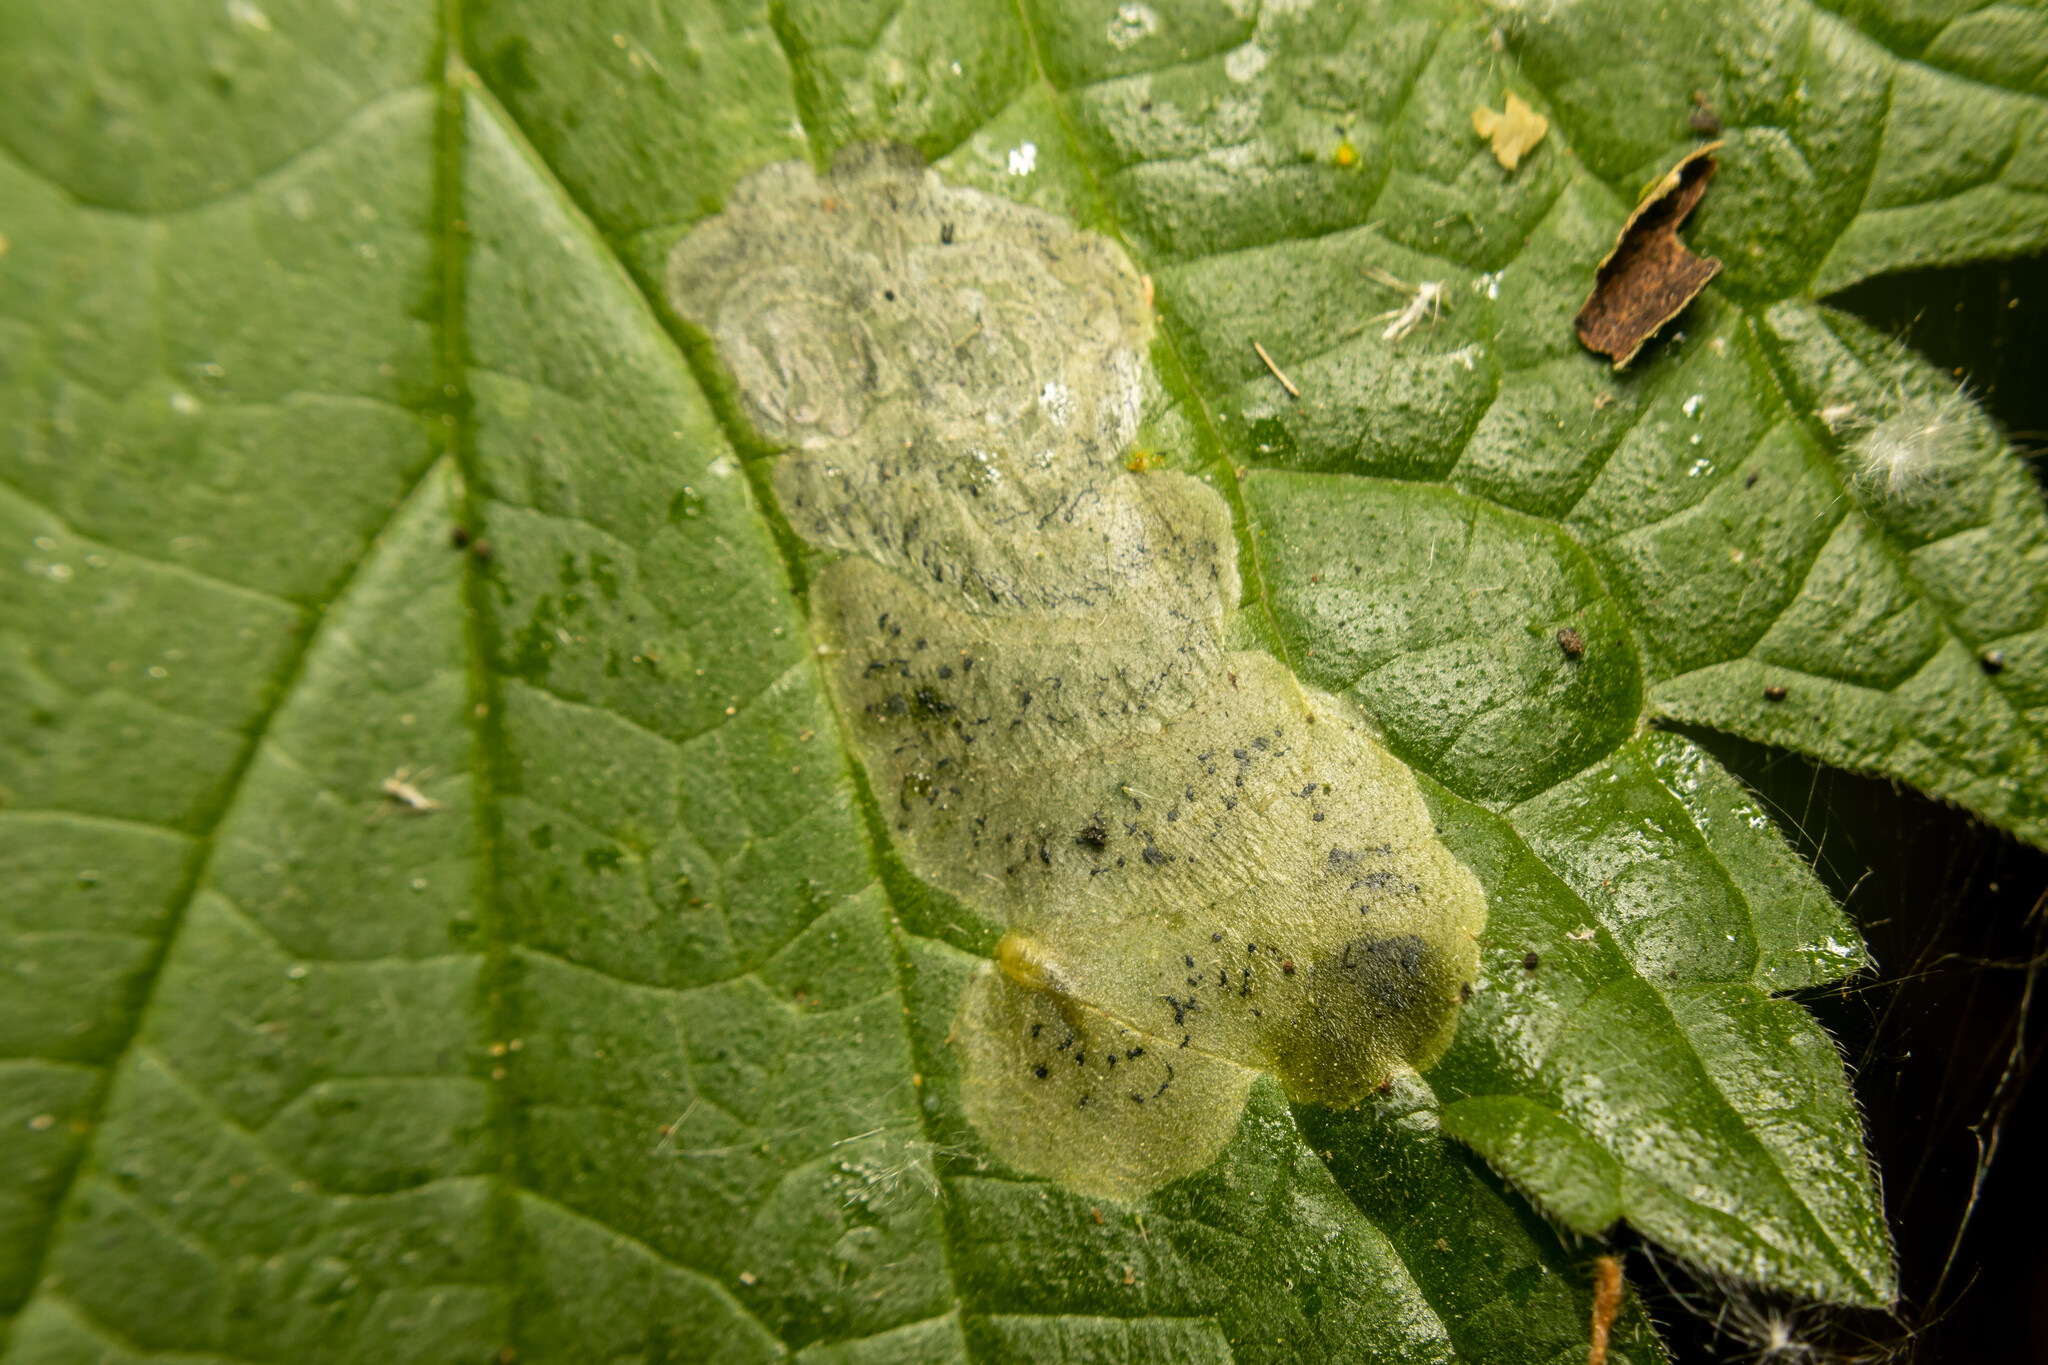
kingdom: Animalia
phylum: Arthropoda
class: Insecta
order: Diptera
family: Agromyzidae
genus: Agromyza
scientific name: Agromyza anthracina
